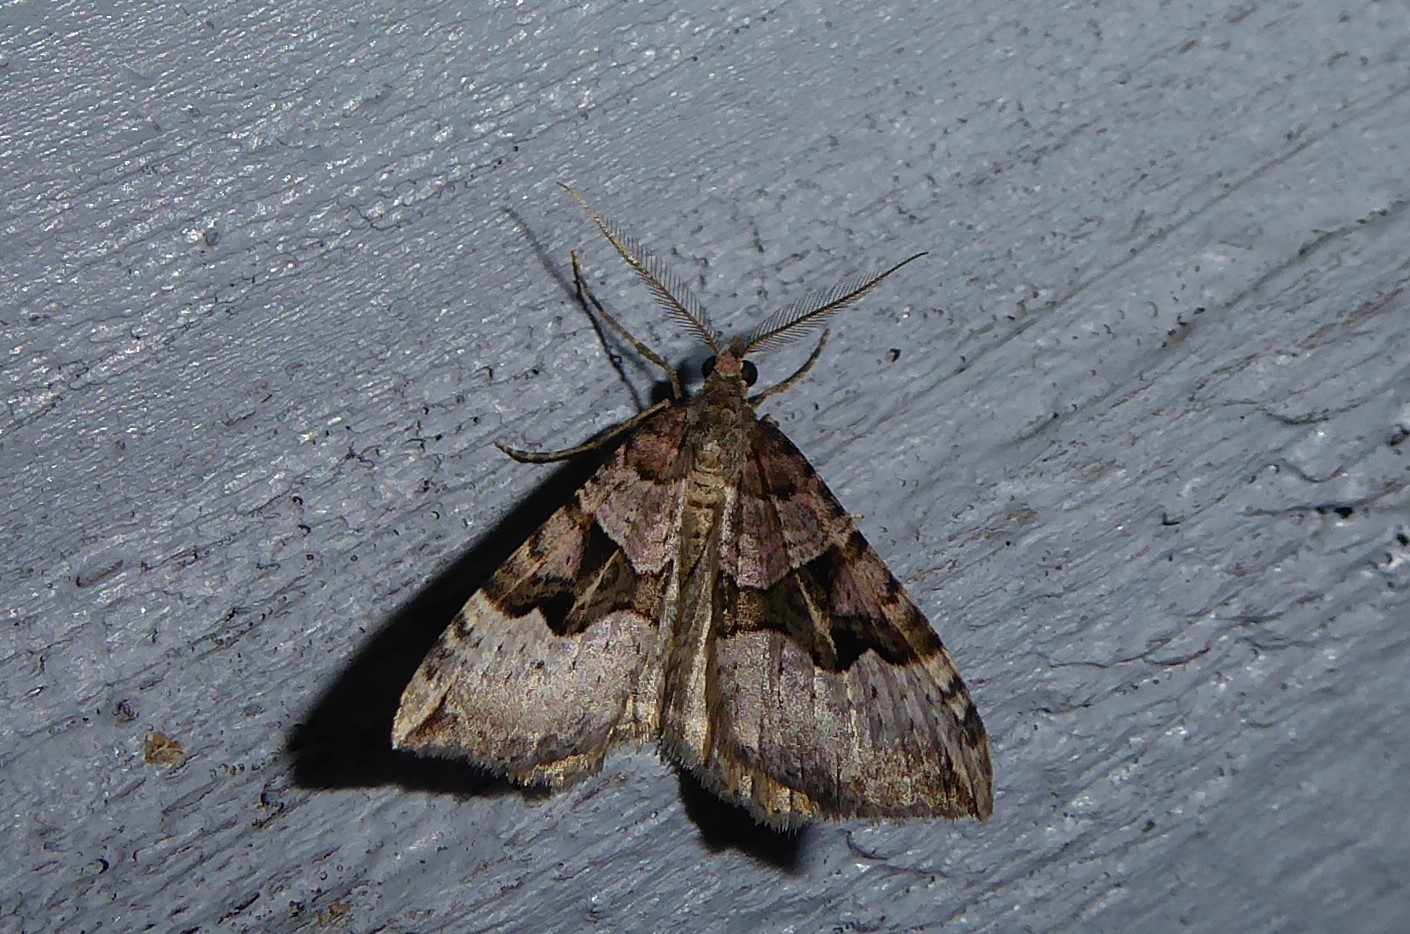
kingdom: Animalia
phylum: Arthropoda
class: Insecta
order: Lepidoptera
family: Geometridae
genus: Xanthorhoe
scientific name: Xanthorhoe semifissata
